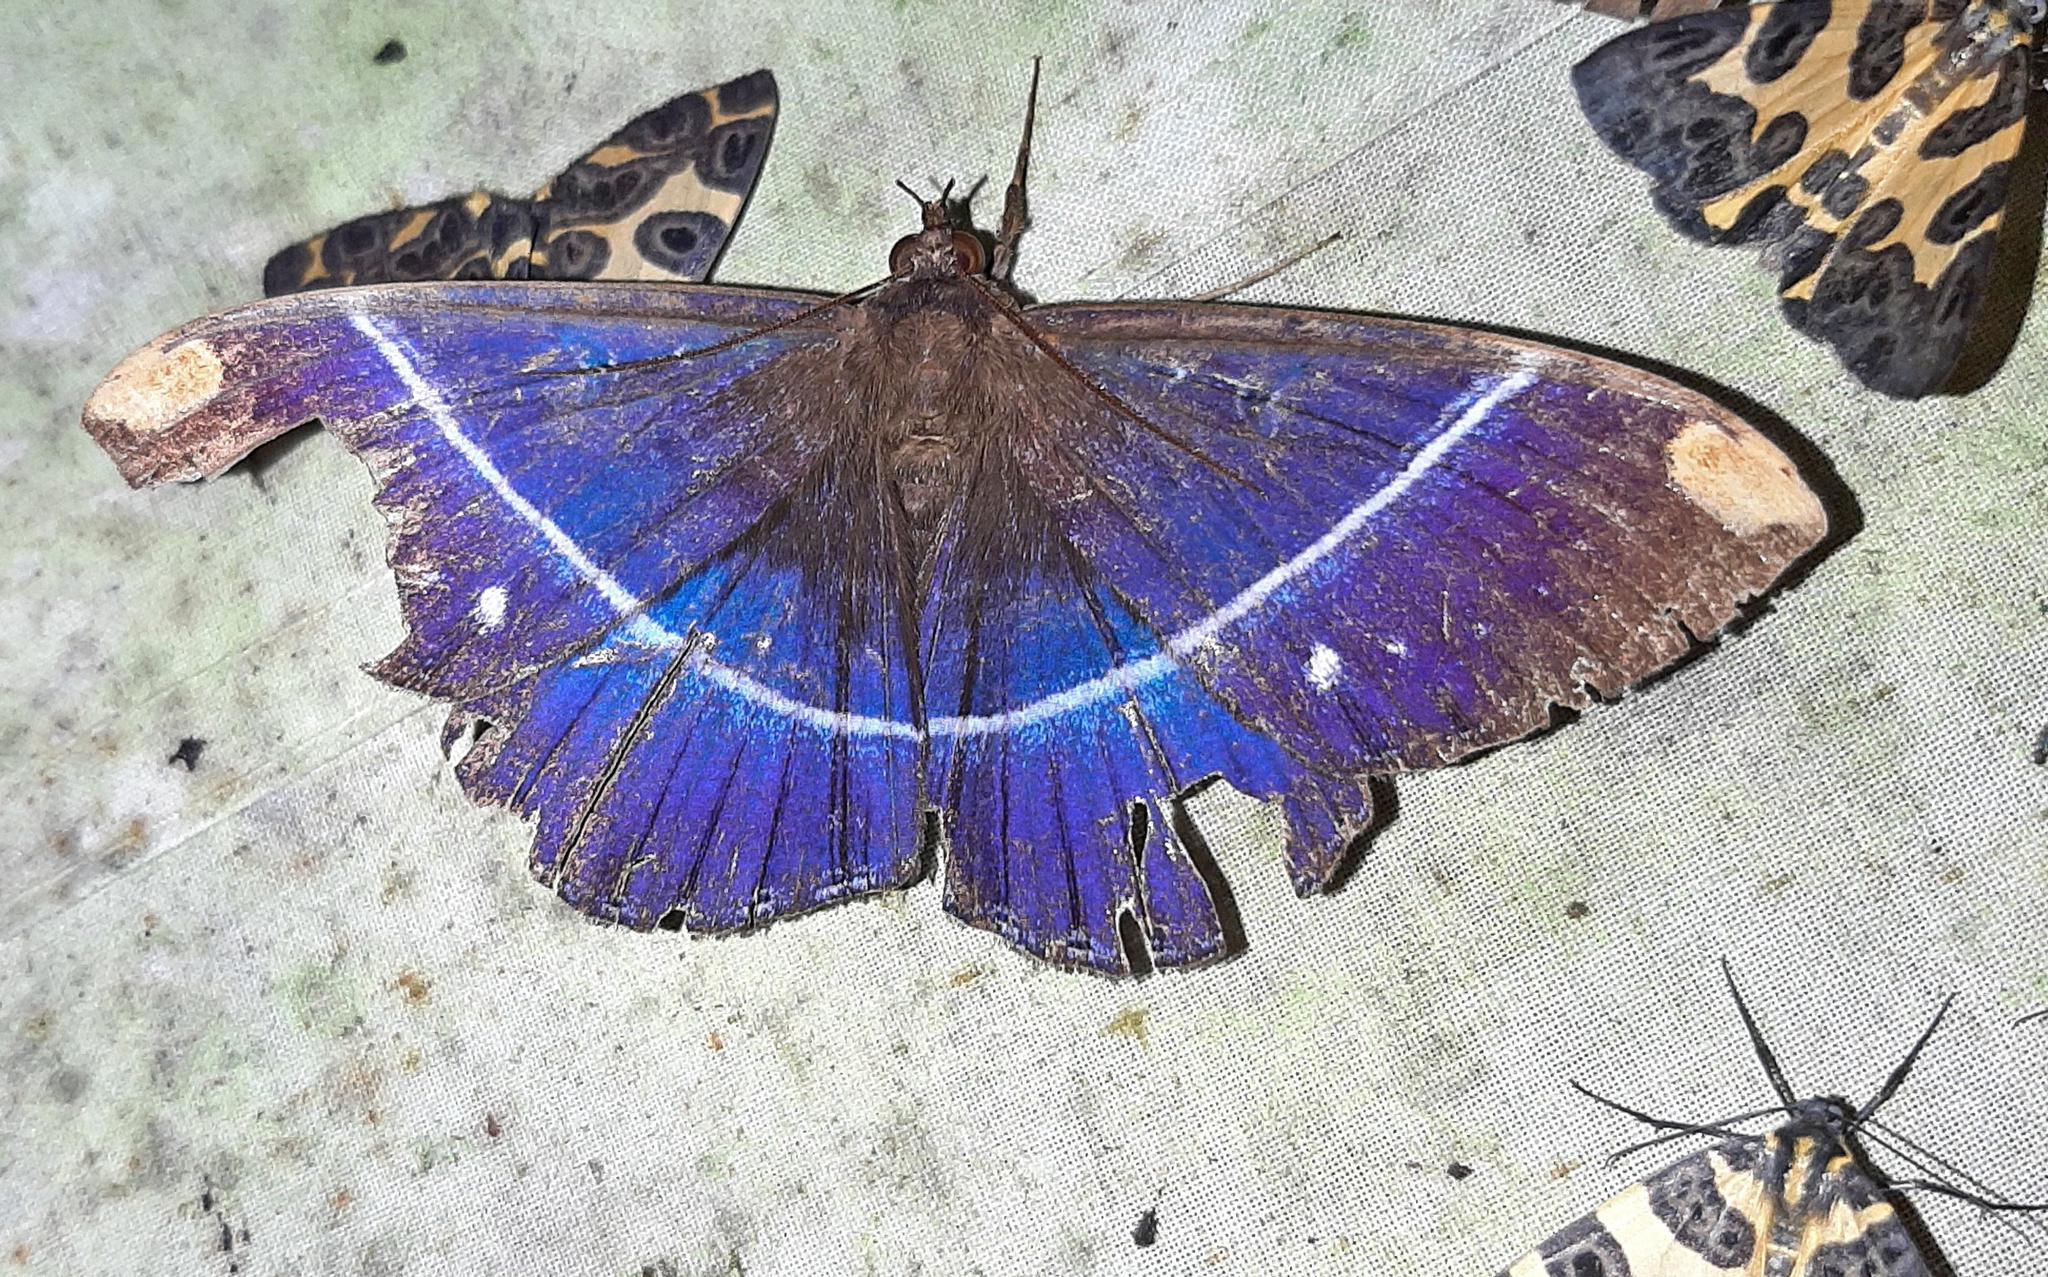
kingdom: Animalia
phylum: Arthropoda
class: Insecta
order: Lepidoptera
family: Erebidae
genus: Hemeroblemma
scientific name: Hemeroblemma
